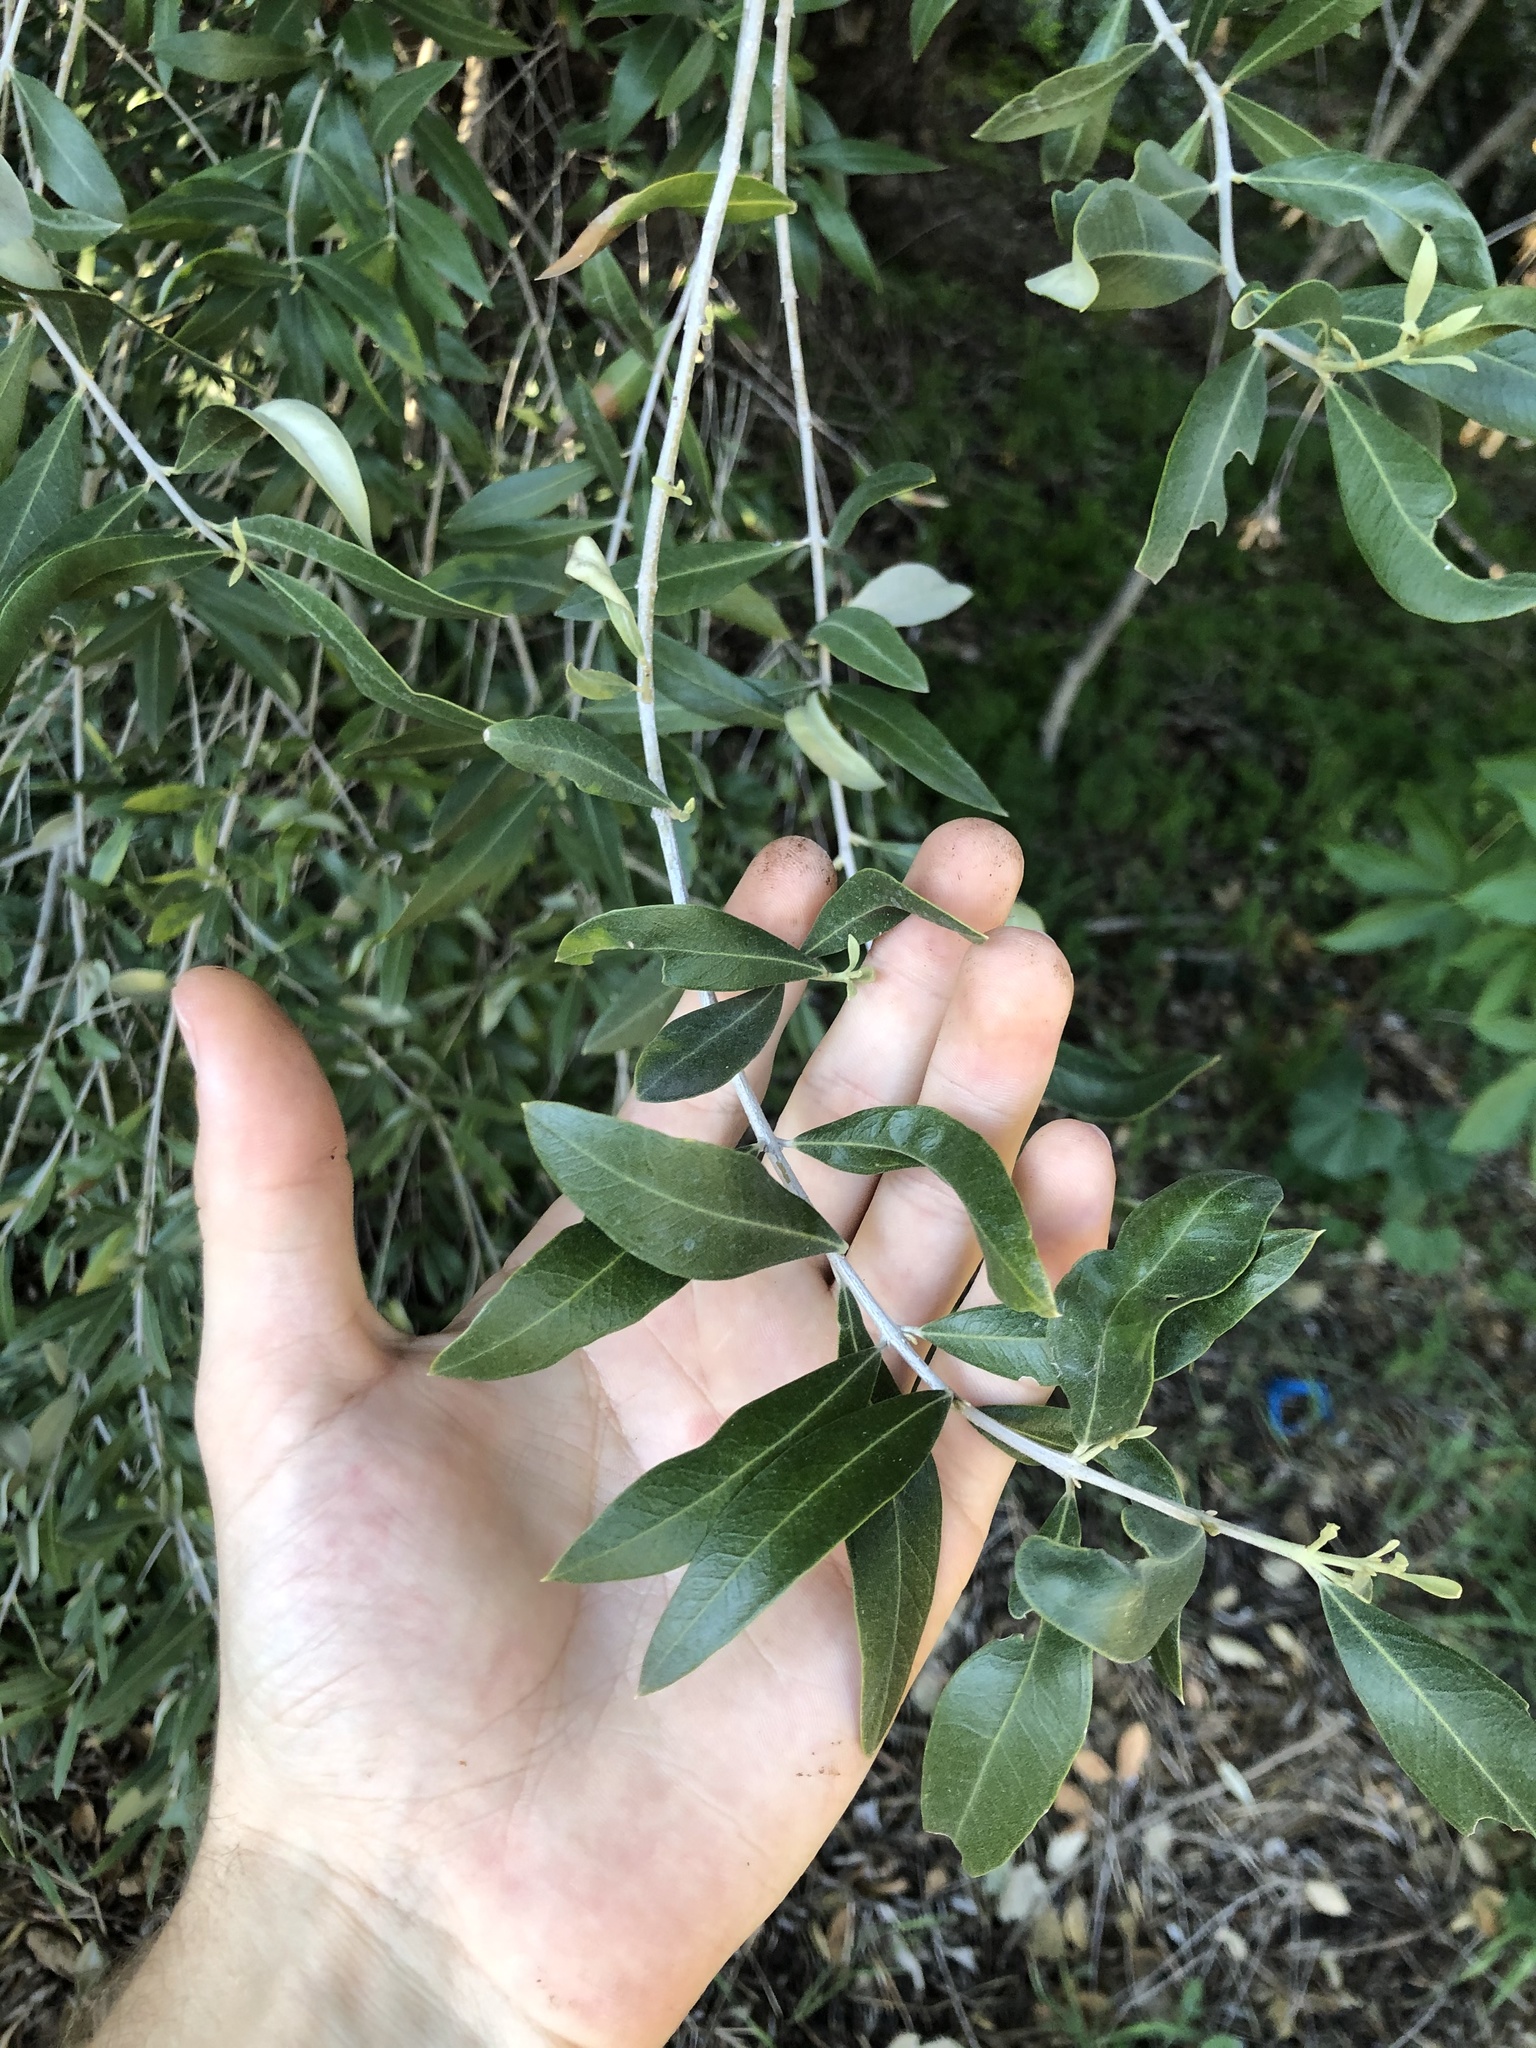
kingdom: Fungi
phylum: Basidiomycota
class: Agaricomycetes
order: Agaricales
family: Physalacriaceae
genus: Cryptomarasmius
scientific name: Cryptomarasmius corbariensis
